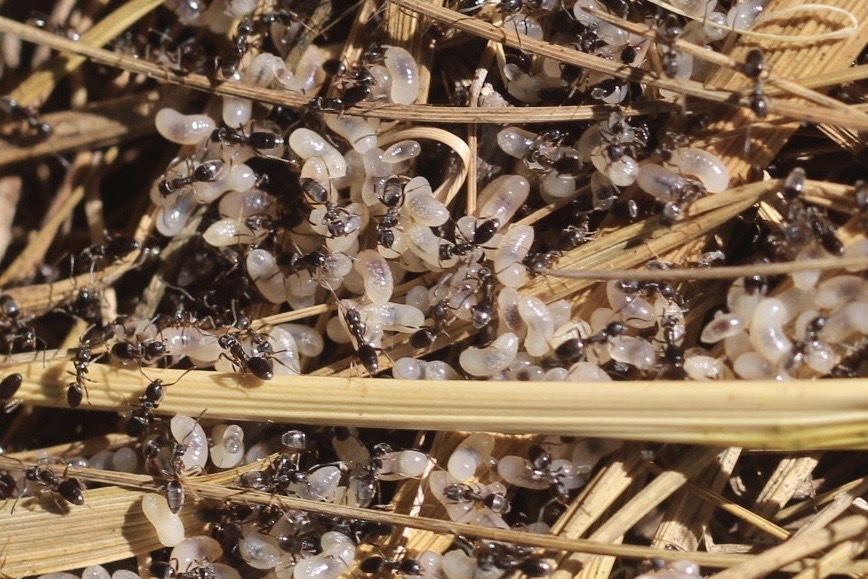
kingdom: Animalia
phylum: Arthropoda
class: Insecta
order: Hymenoptera
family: Formicidae
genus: Tapinoma
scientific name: Tapinoma sessile
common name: Odorous house ant
